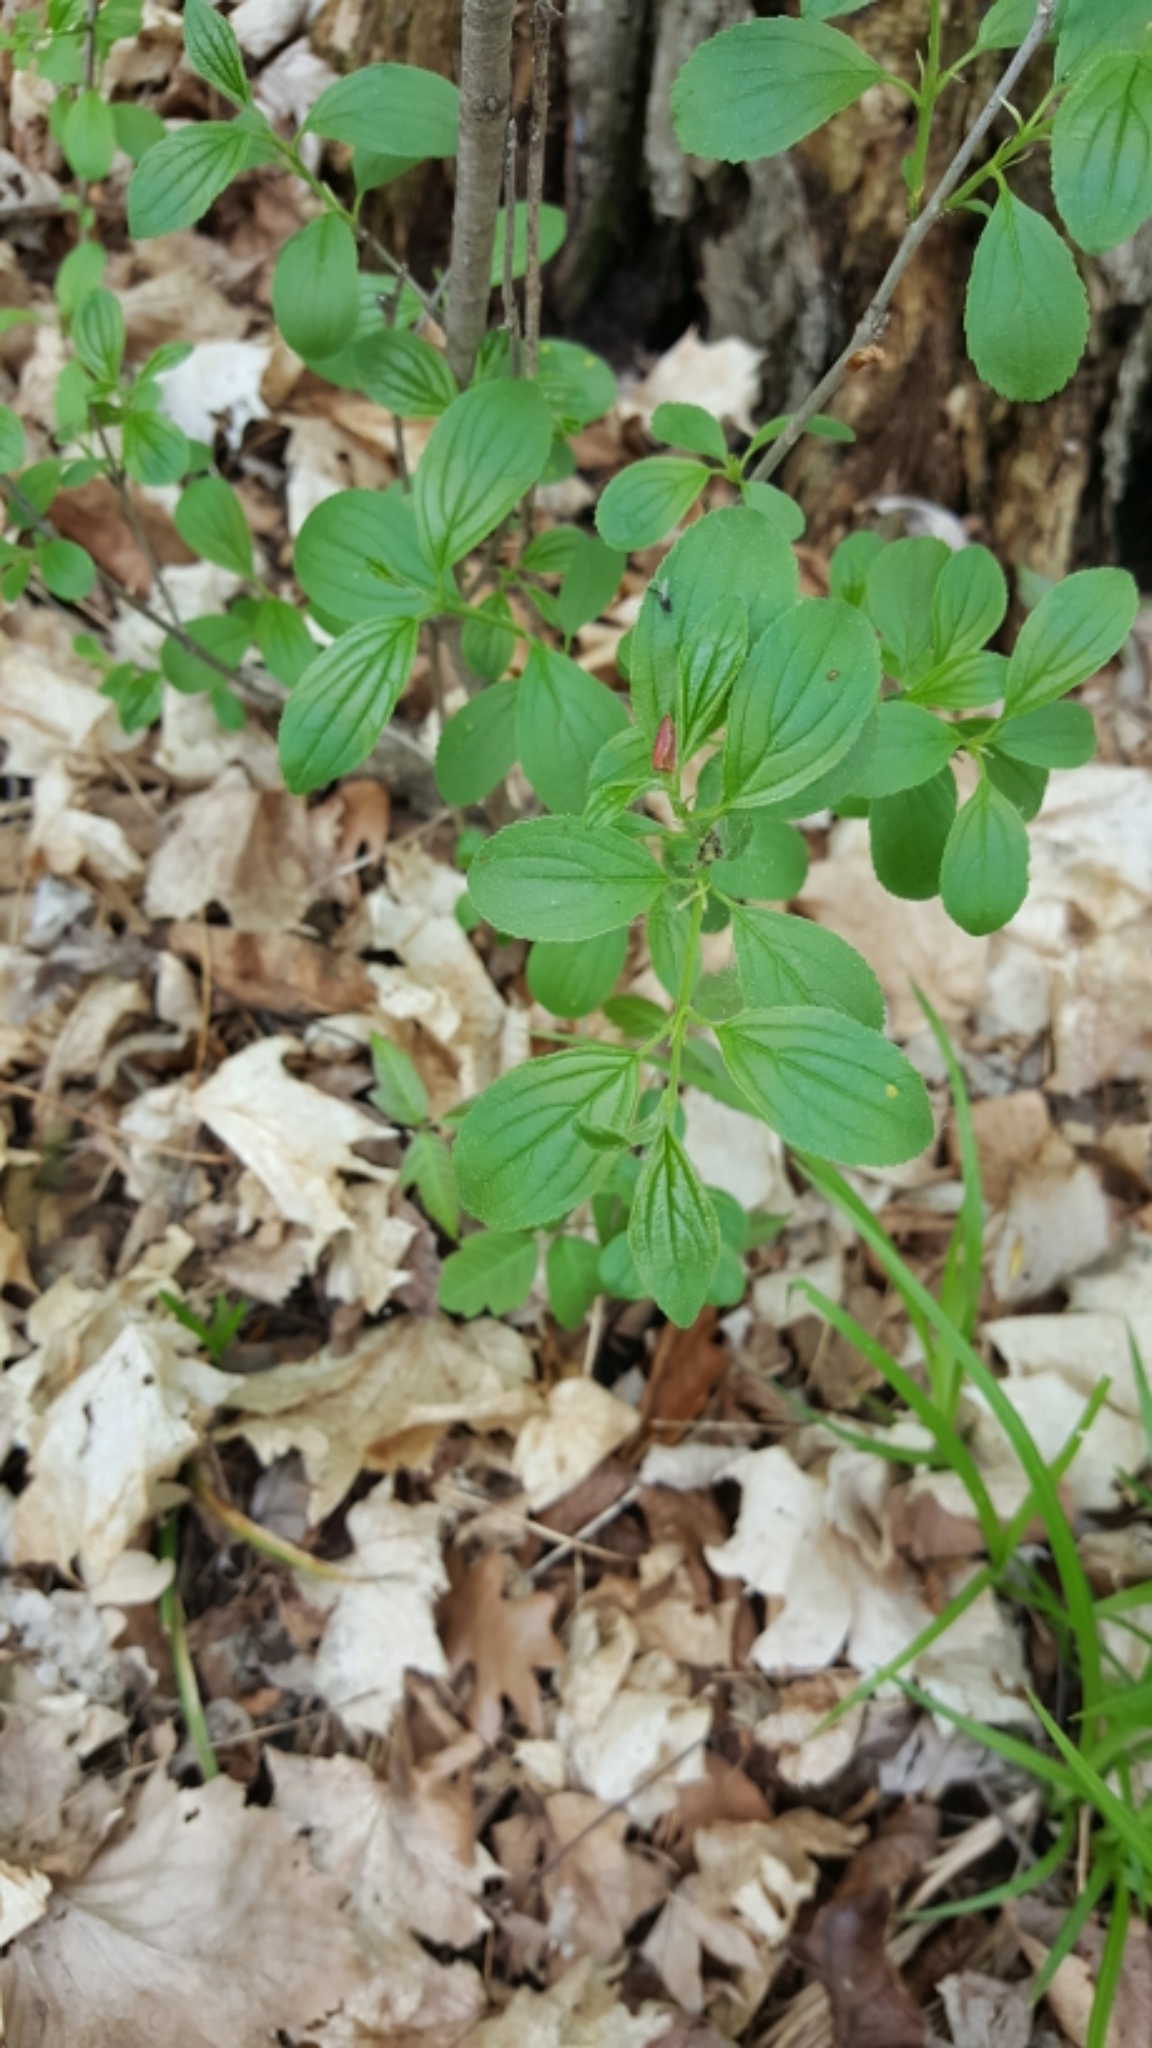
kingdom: Plantae
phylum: Tracheophyta
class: Magnoliopsida
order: Rosales
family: Rhamnaceae
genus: Rhamnus
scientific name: Rhamnus cathartica
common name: Common buckthorn
